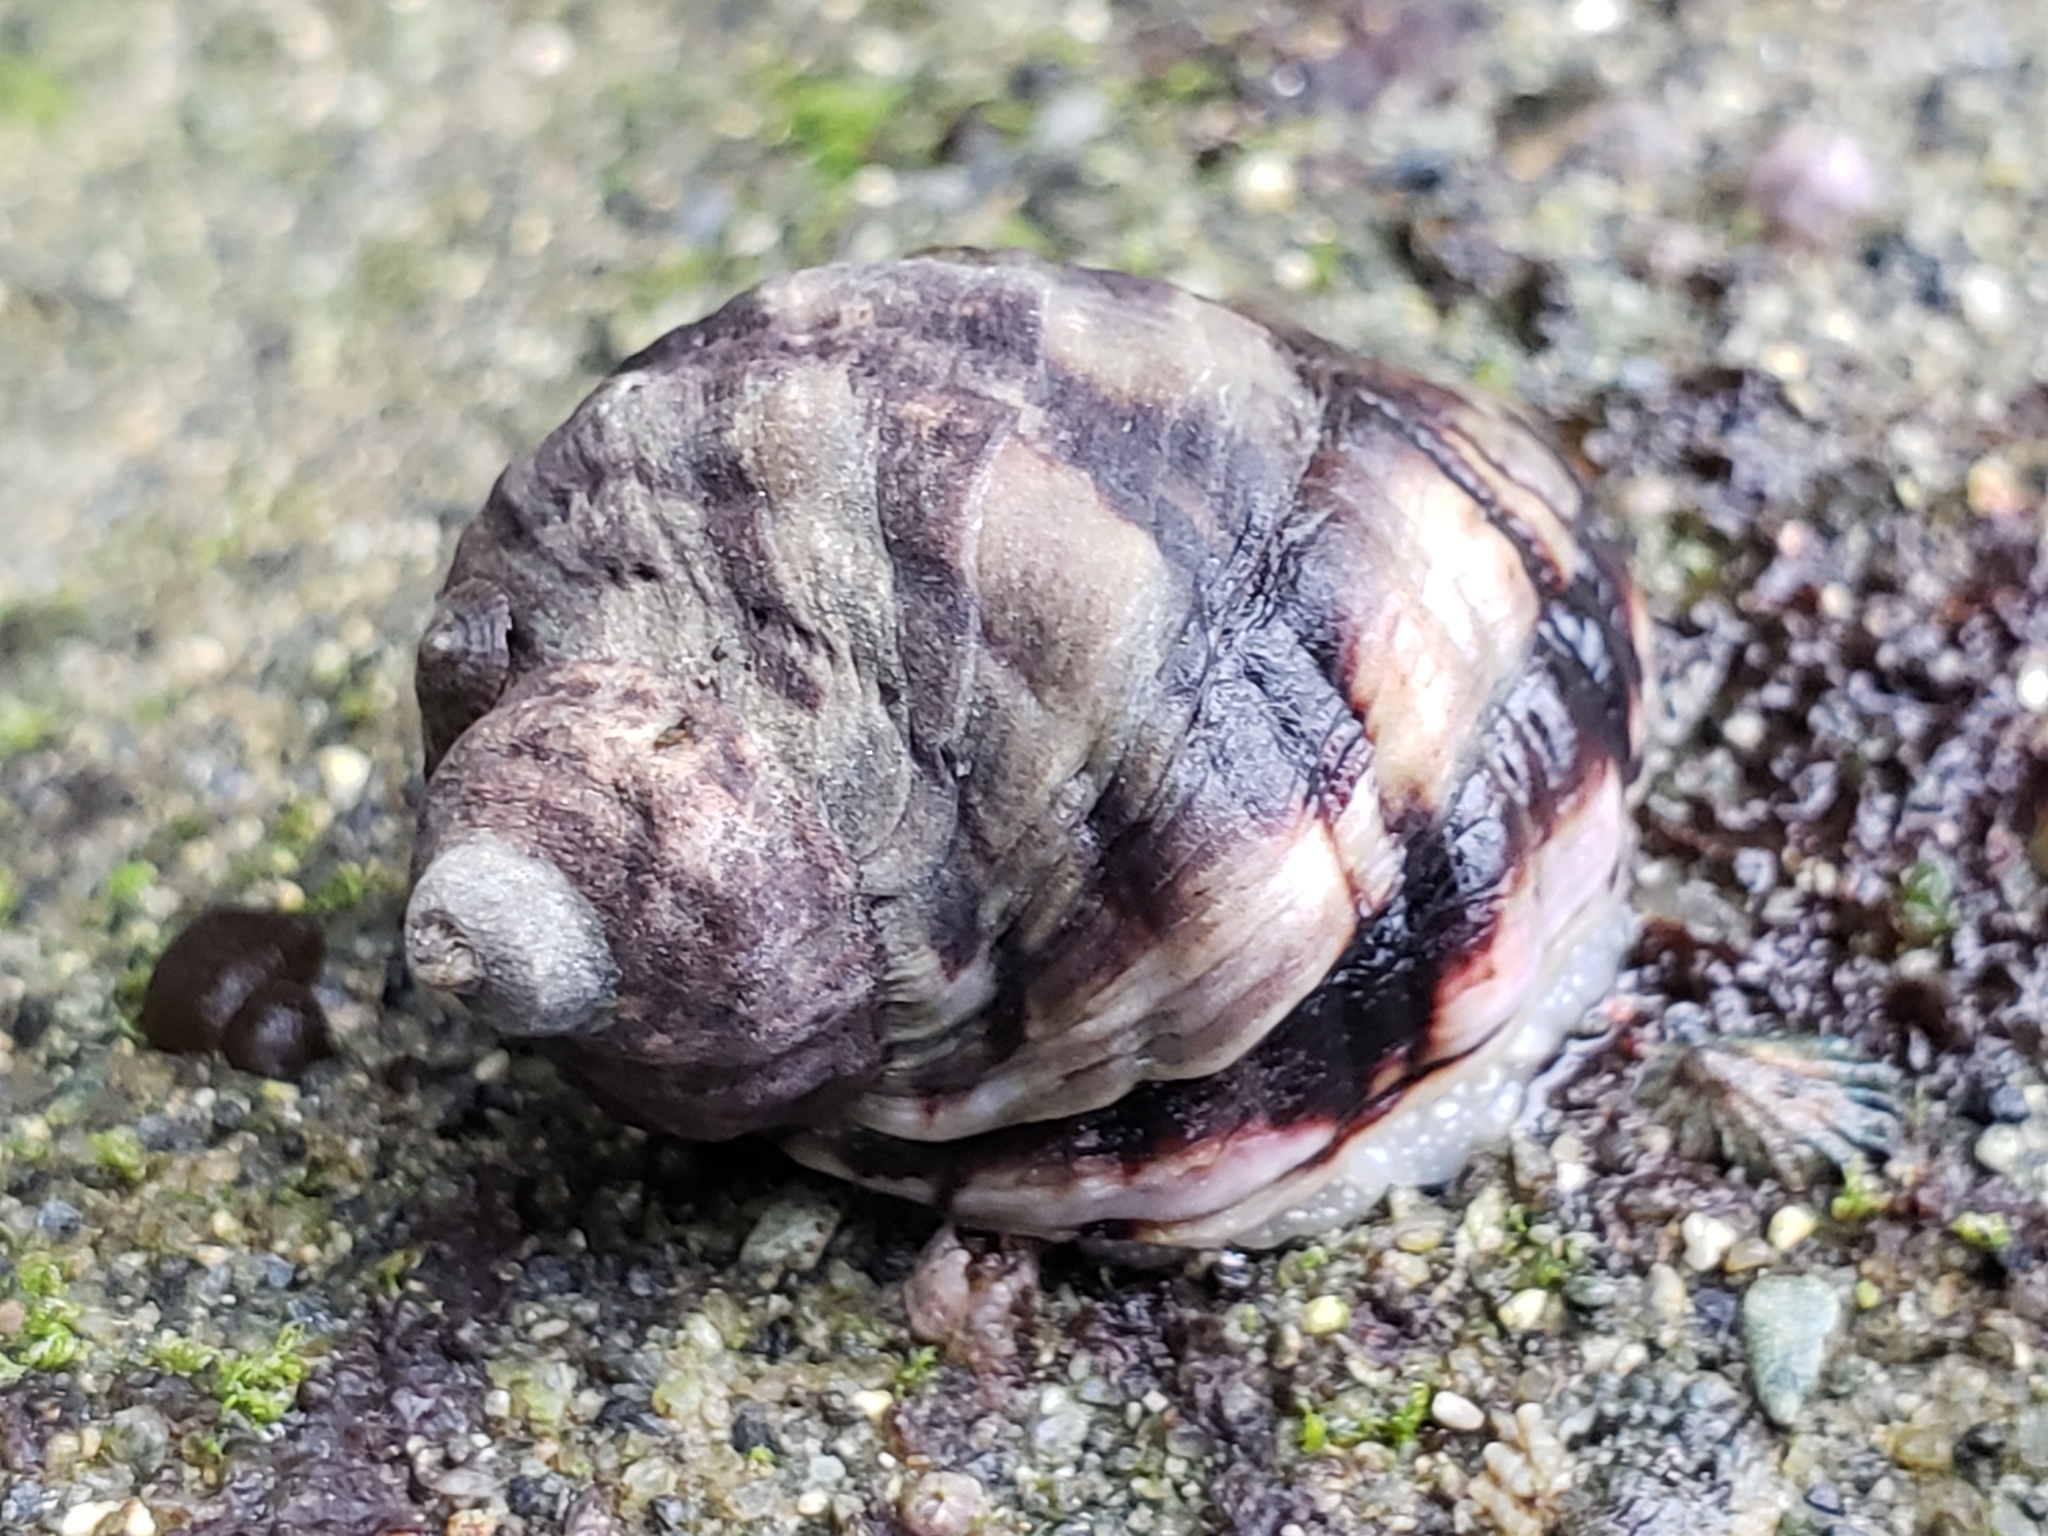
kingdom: Animalia
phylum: Mollusca
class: Gastropoda
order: Neogastropoda
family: Muricidae
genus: Mexacanthina
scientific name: Mexacanthina lugubris
